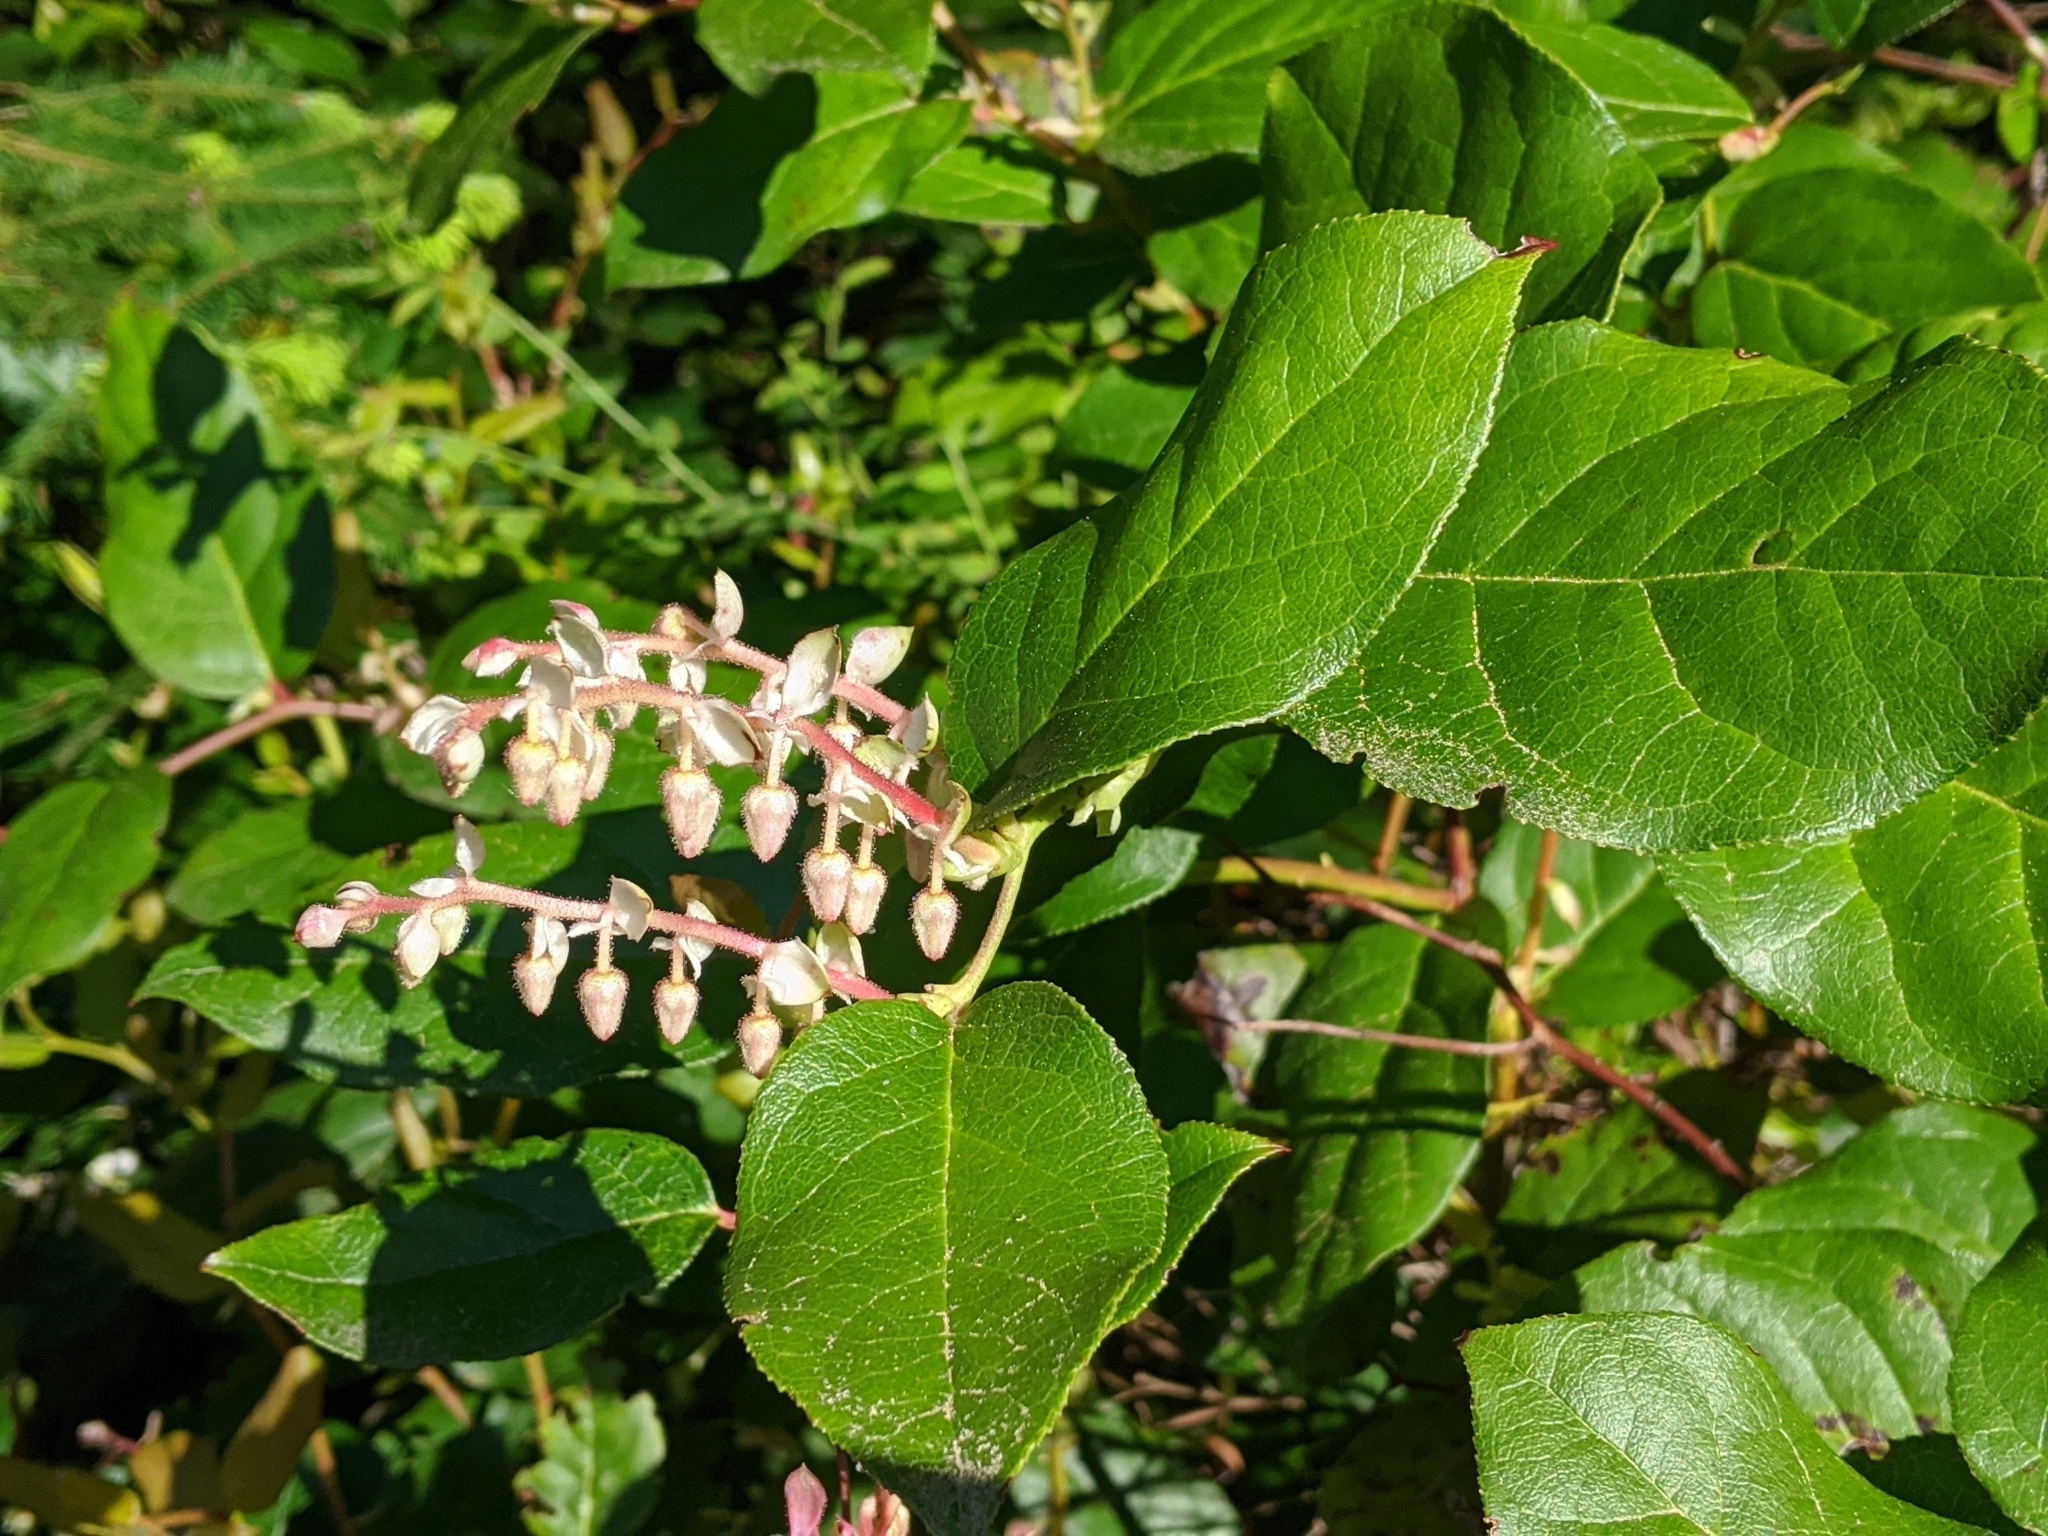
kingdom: Plantae
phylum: Tracheophyta
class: Magnoliopsida
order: Ericales
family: Ericaceae
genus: Gaultheria
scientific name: Gaultheria shallon
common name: Shallon
